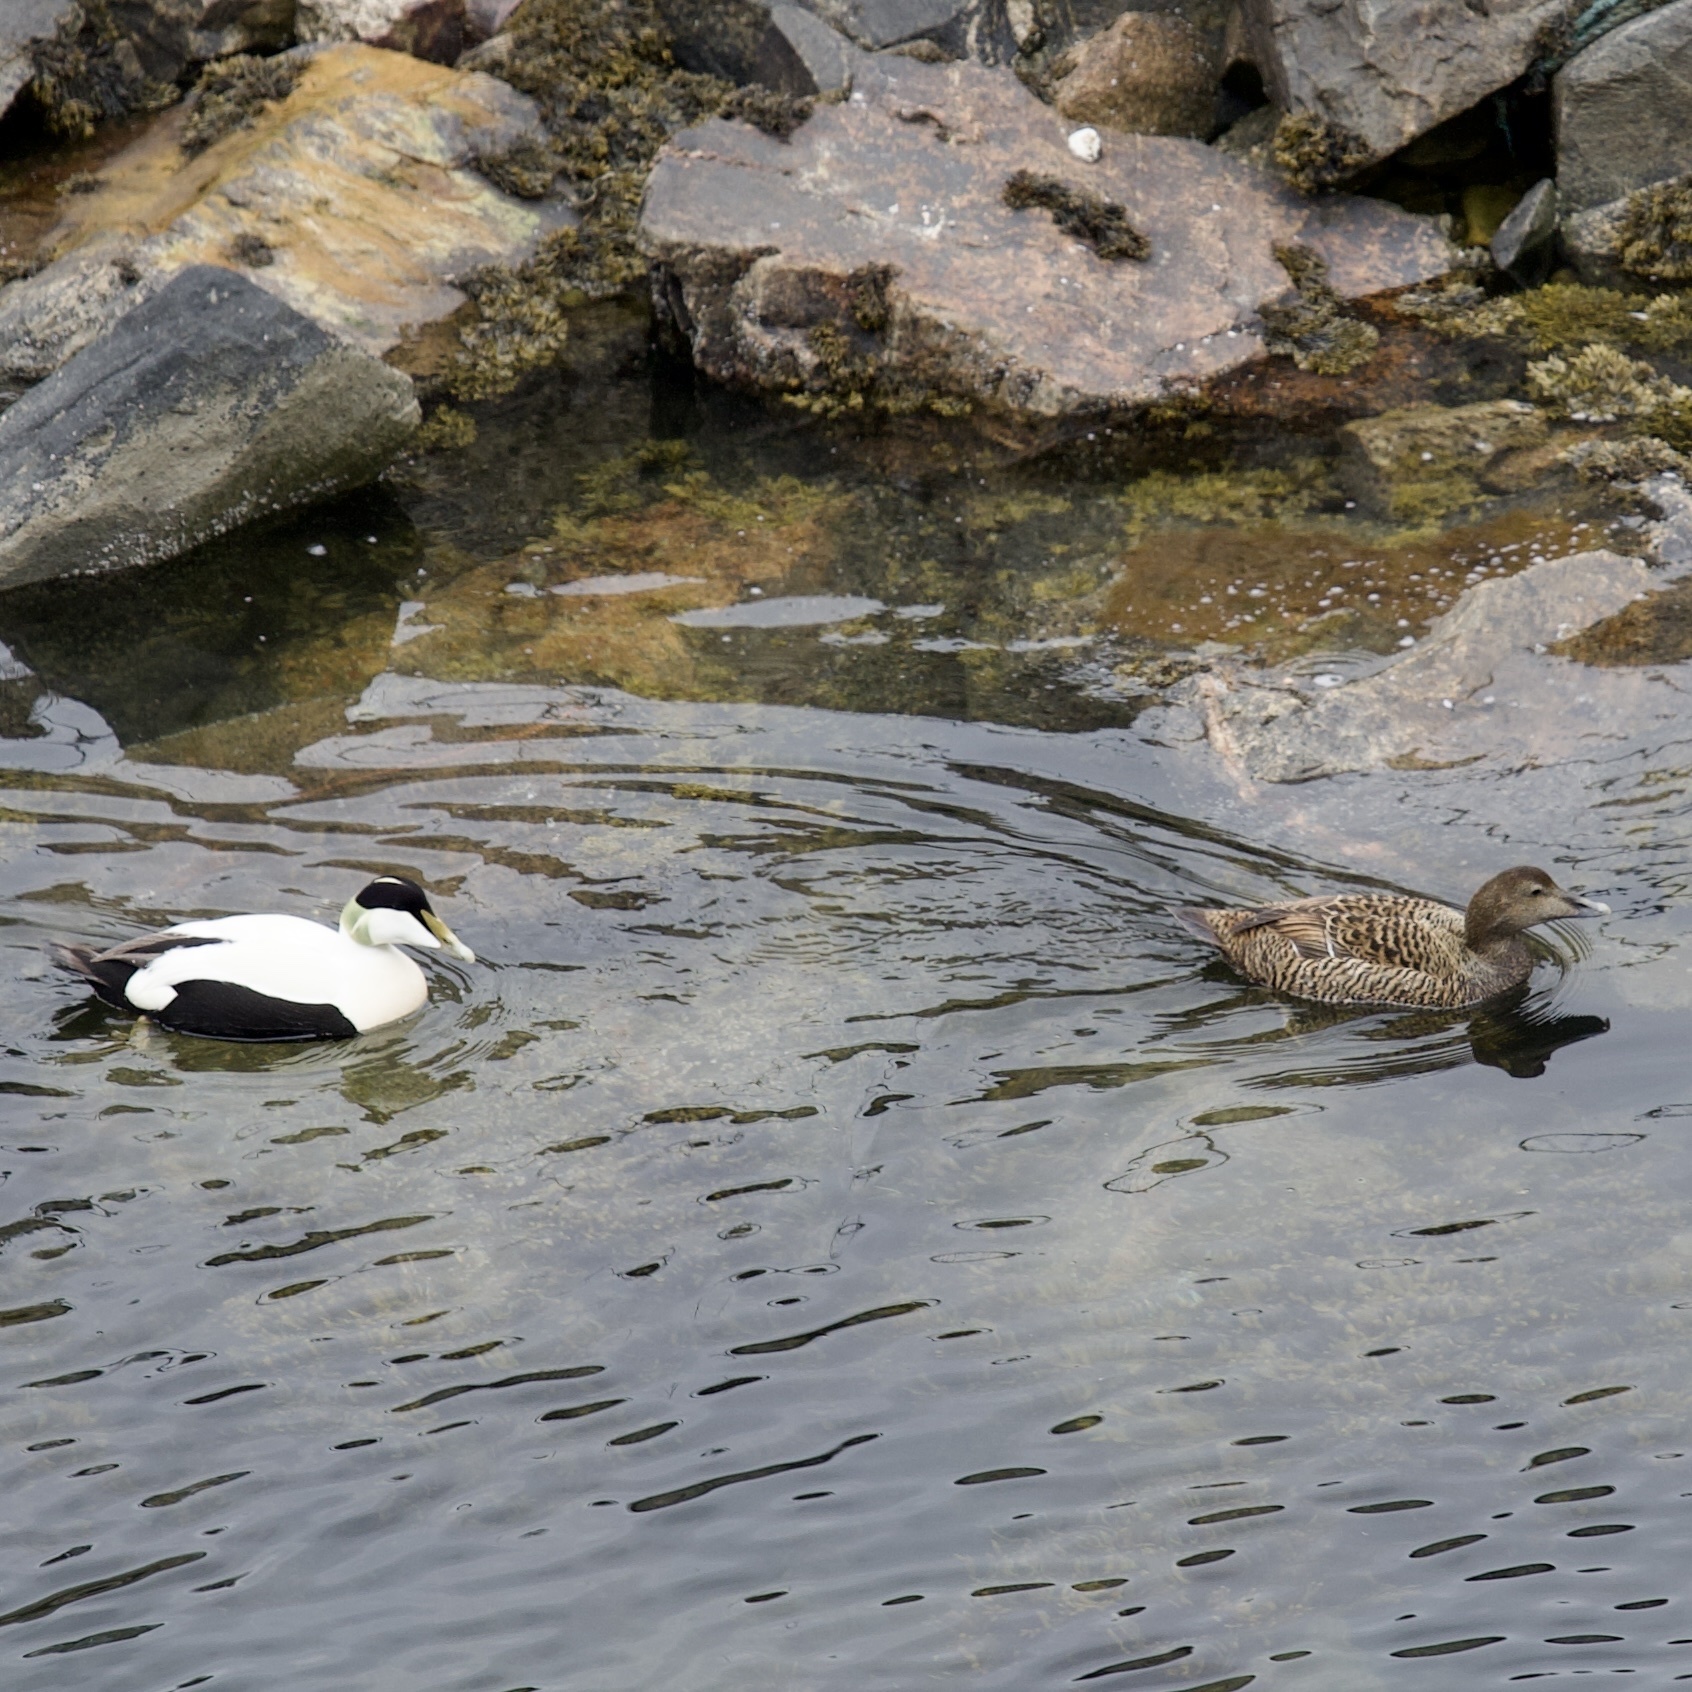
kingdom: Animalia
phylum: Chordata
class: Aves
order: Anseriformes
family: Anatidae
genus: Somateria
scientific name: Somateria mollissima
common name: Common eider
